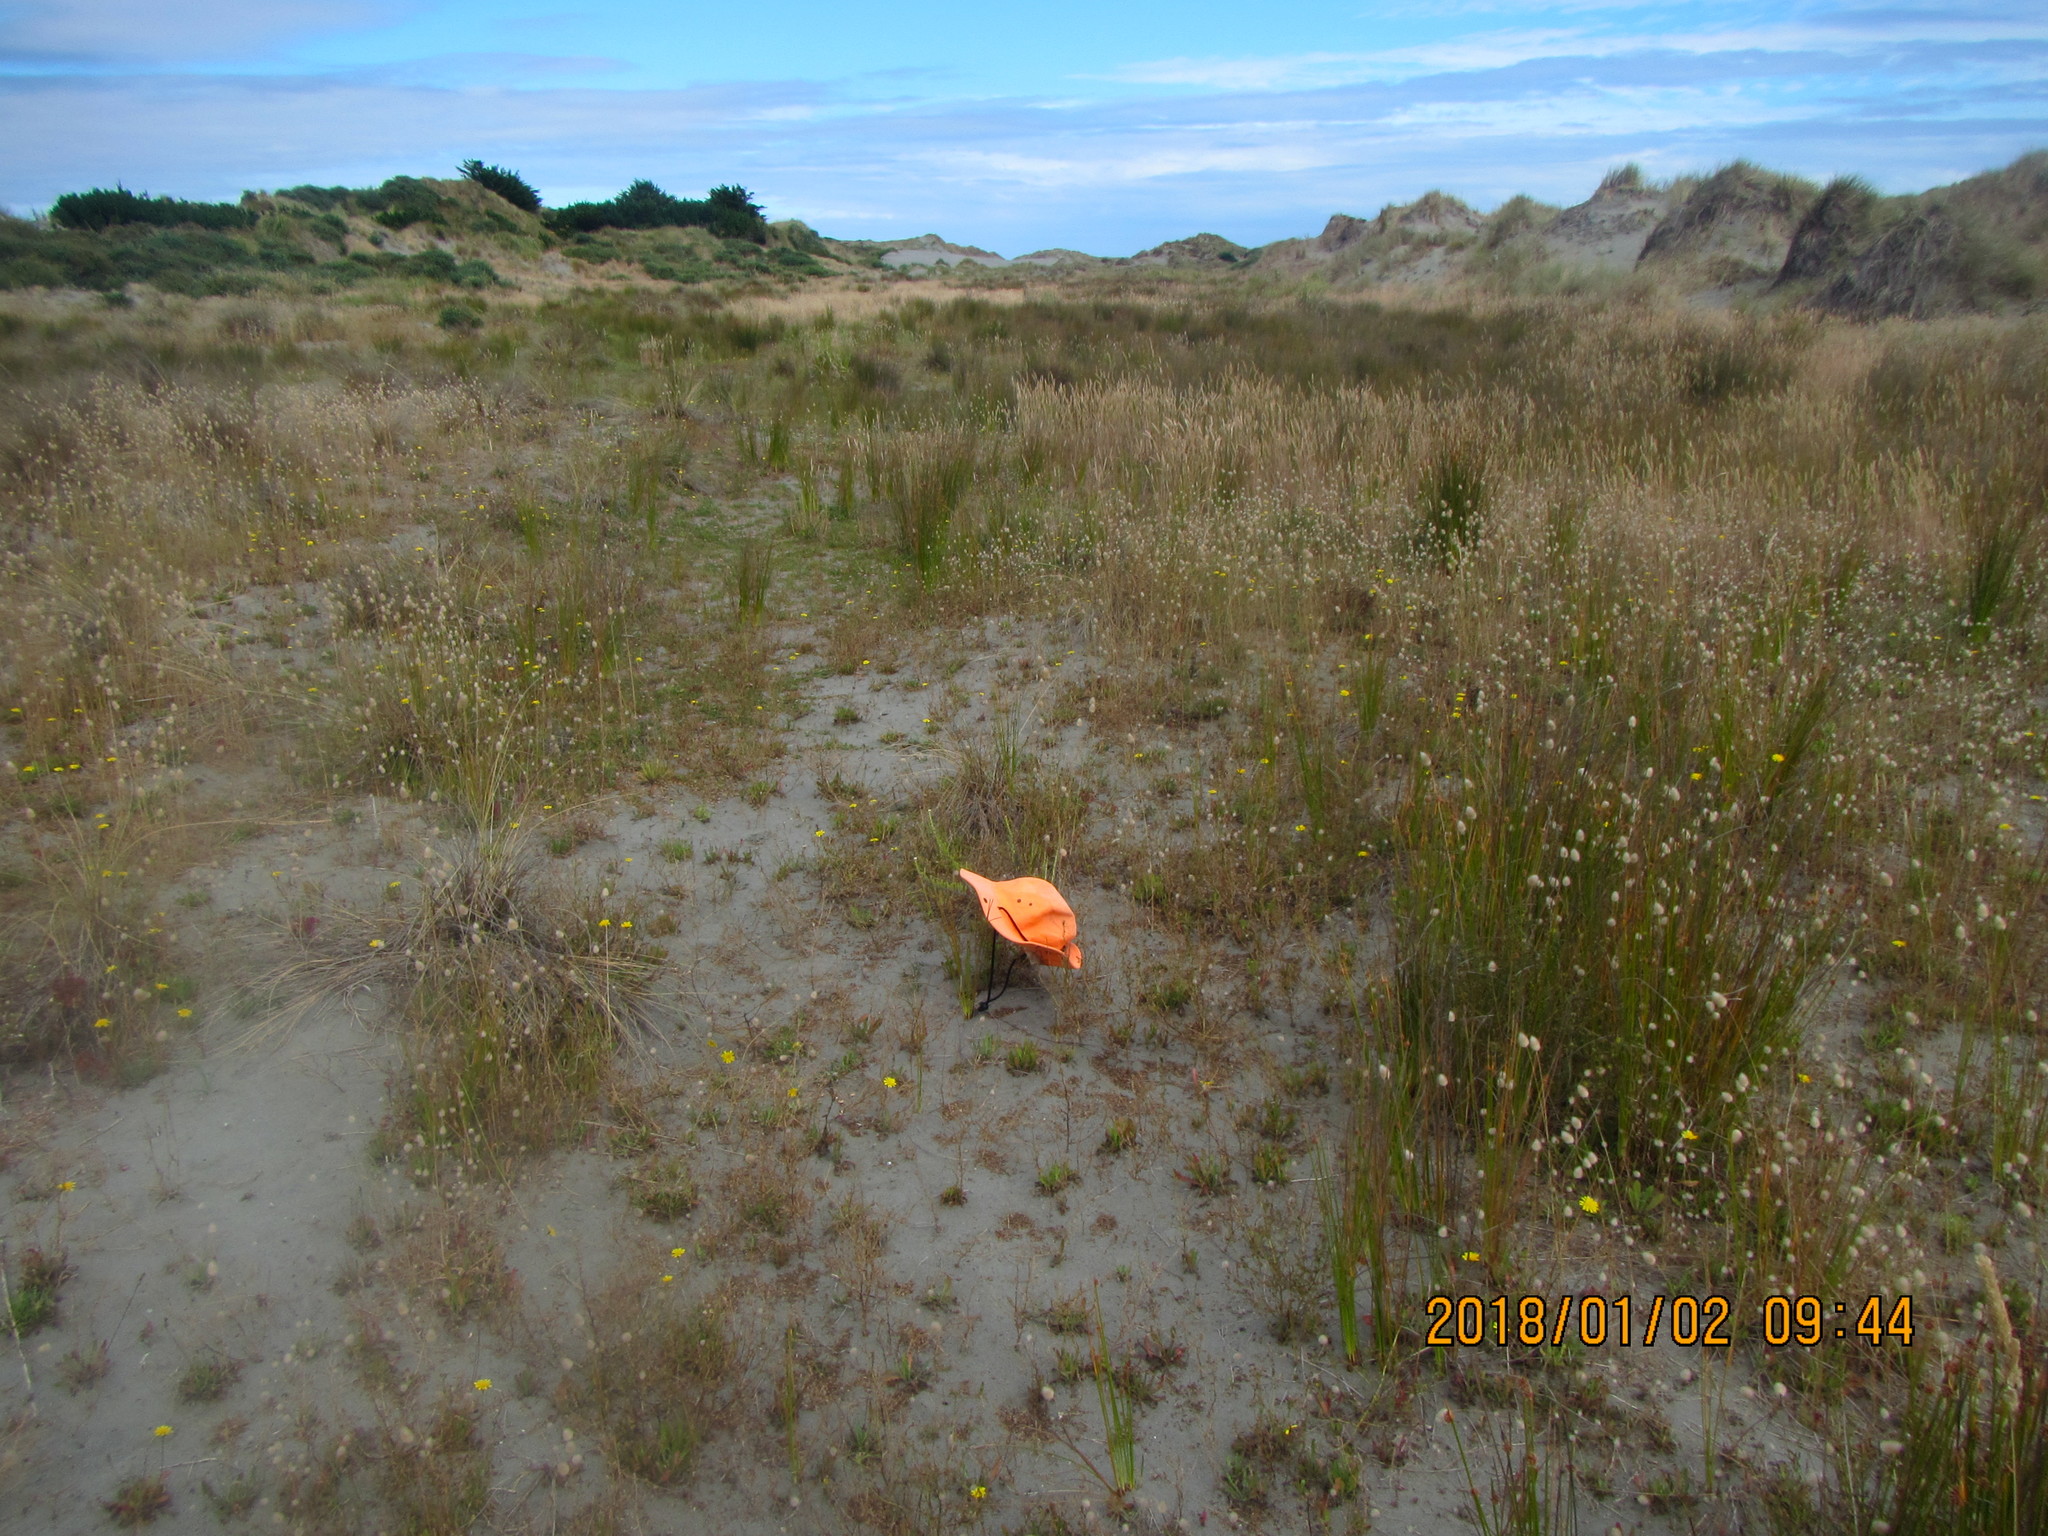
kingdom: Plantae
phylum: Tracheophyta
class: Magnoliopsida
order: Asterales
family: Asteraceae
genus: Ozothamnus
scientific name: Ozothamnus leptophyllus
